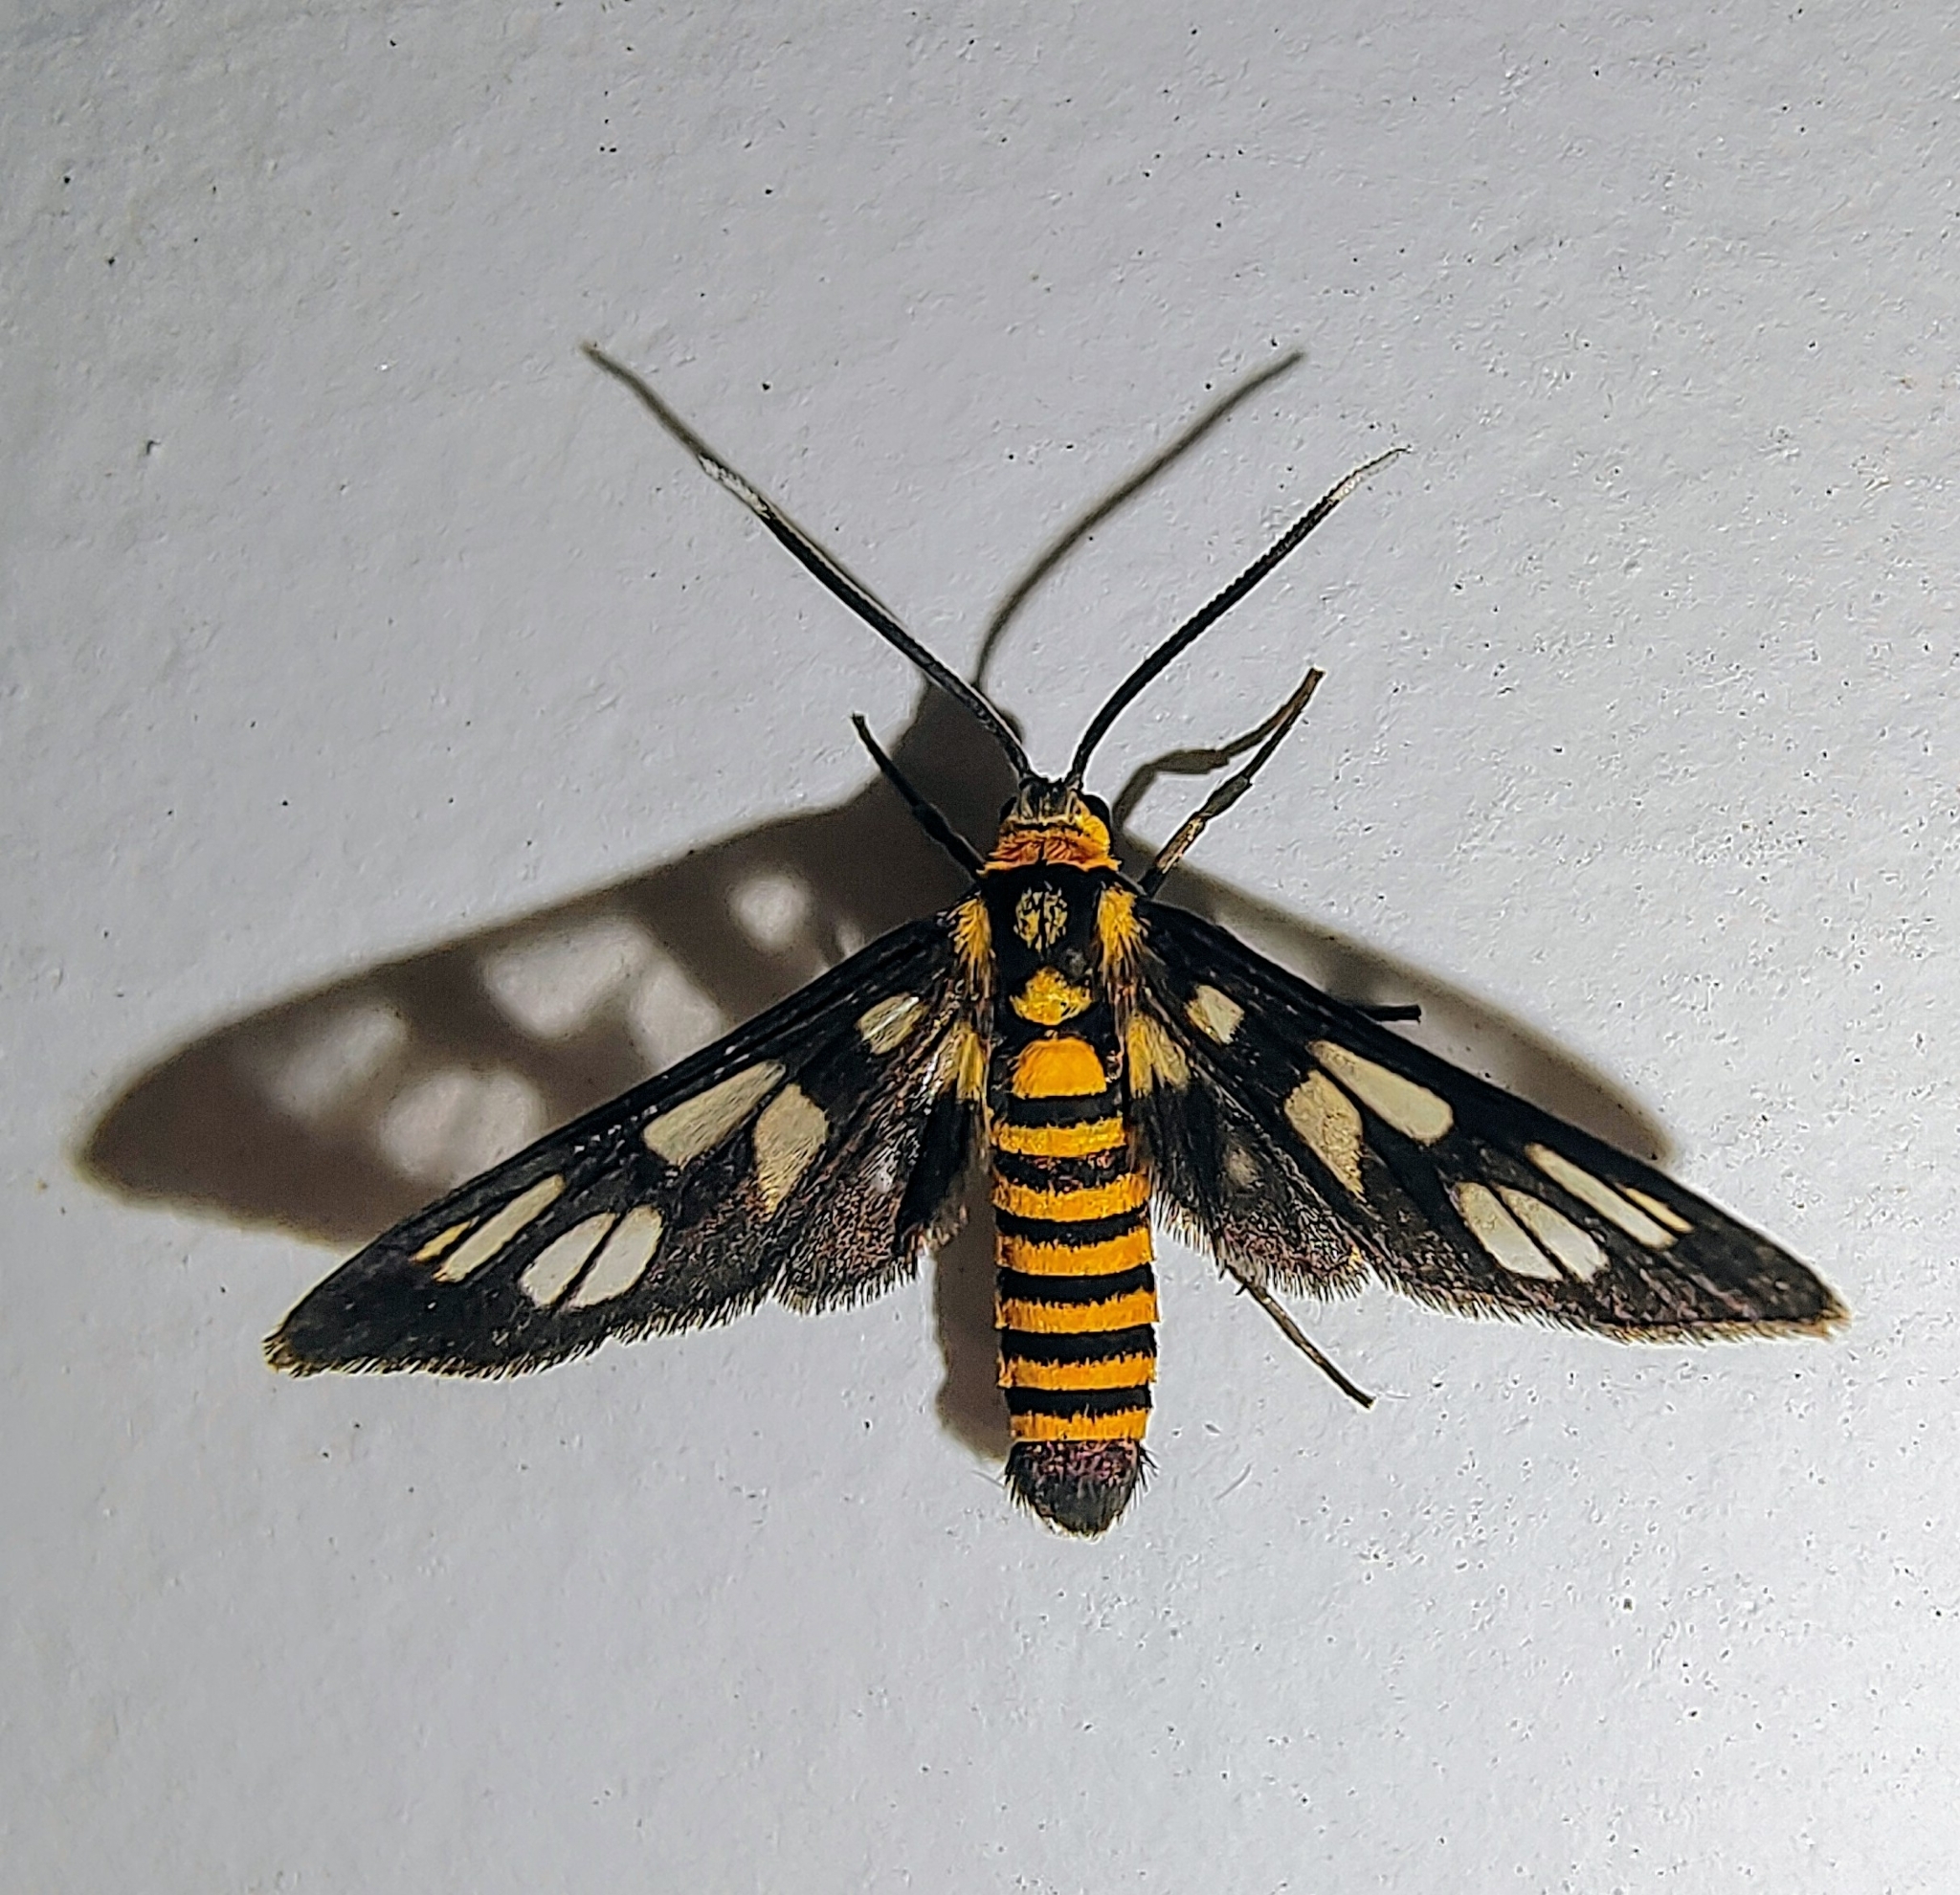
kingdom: Animalia
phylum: Arthropoda
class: Insecta
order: Lepidoptera
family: Erebidae
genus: Amata
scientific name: Amata huebneri
